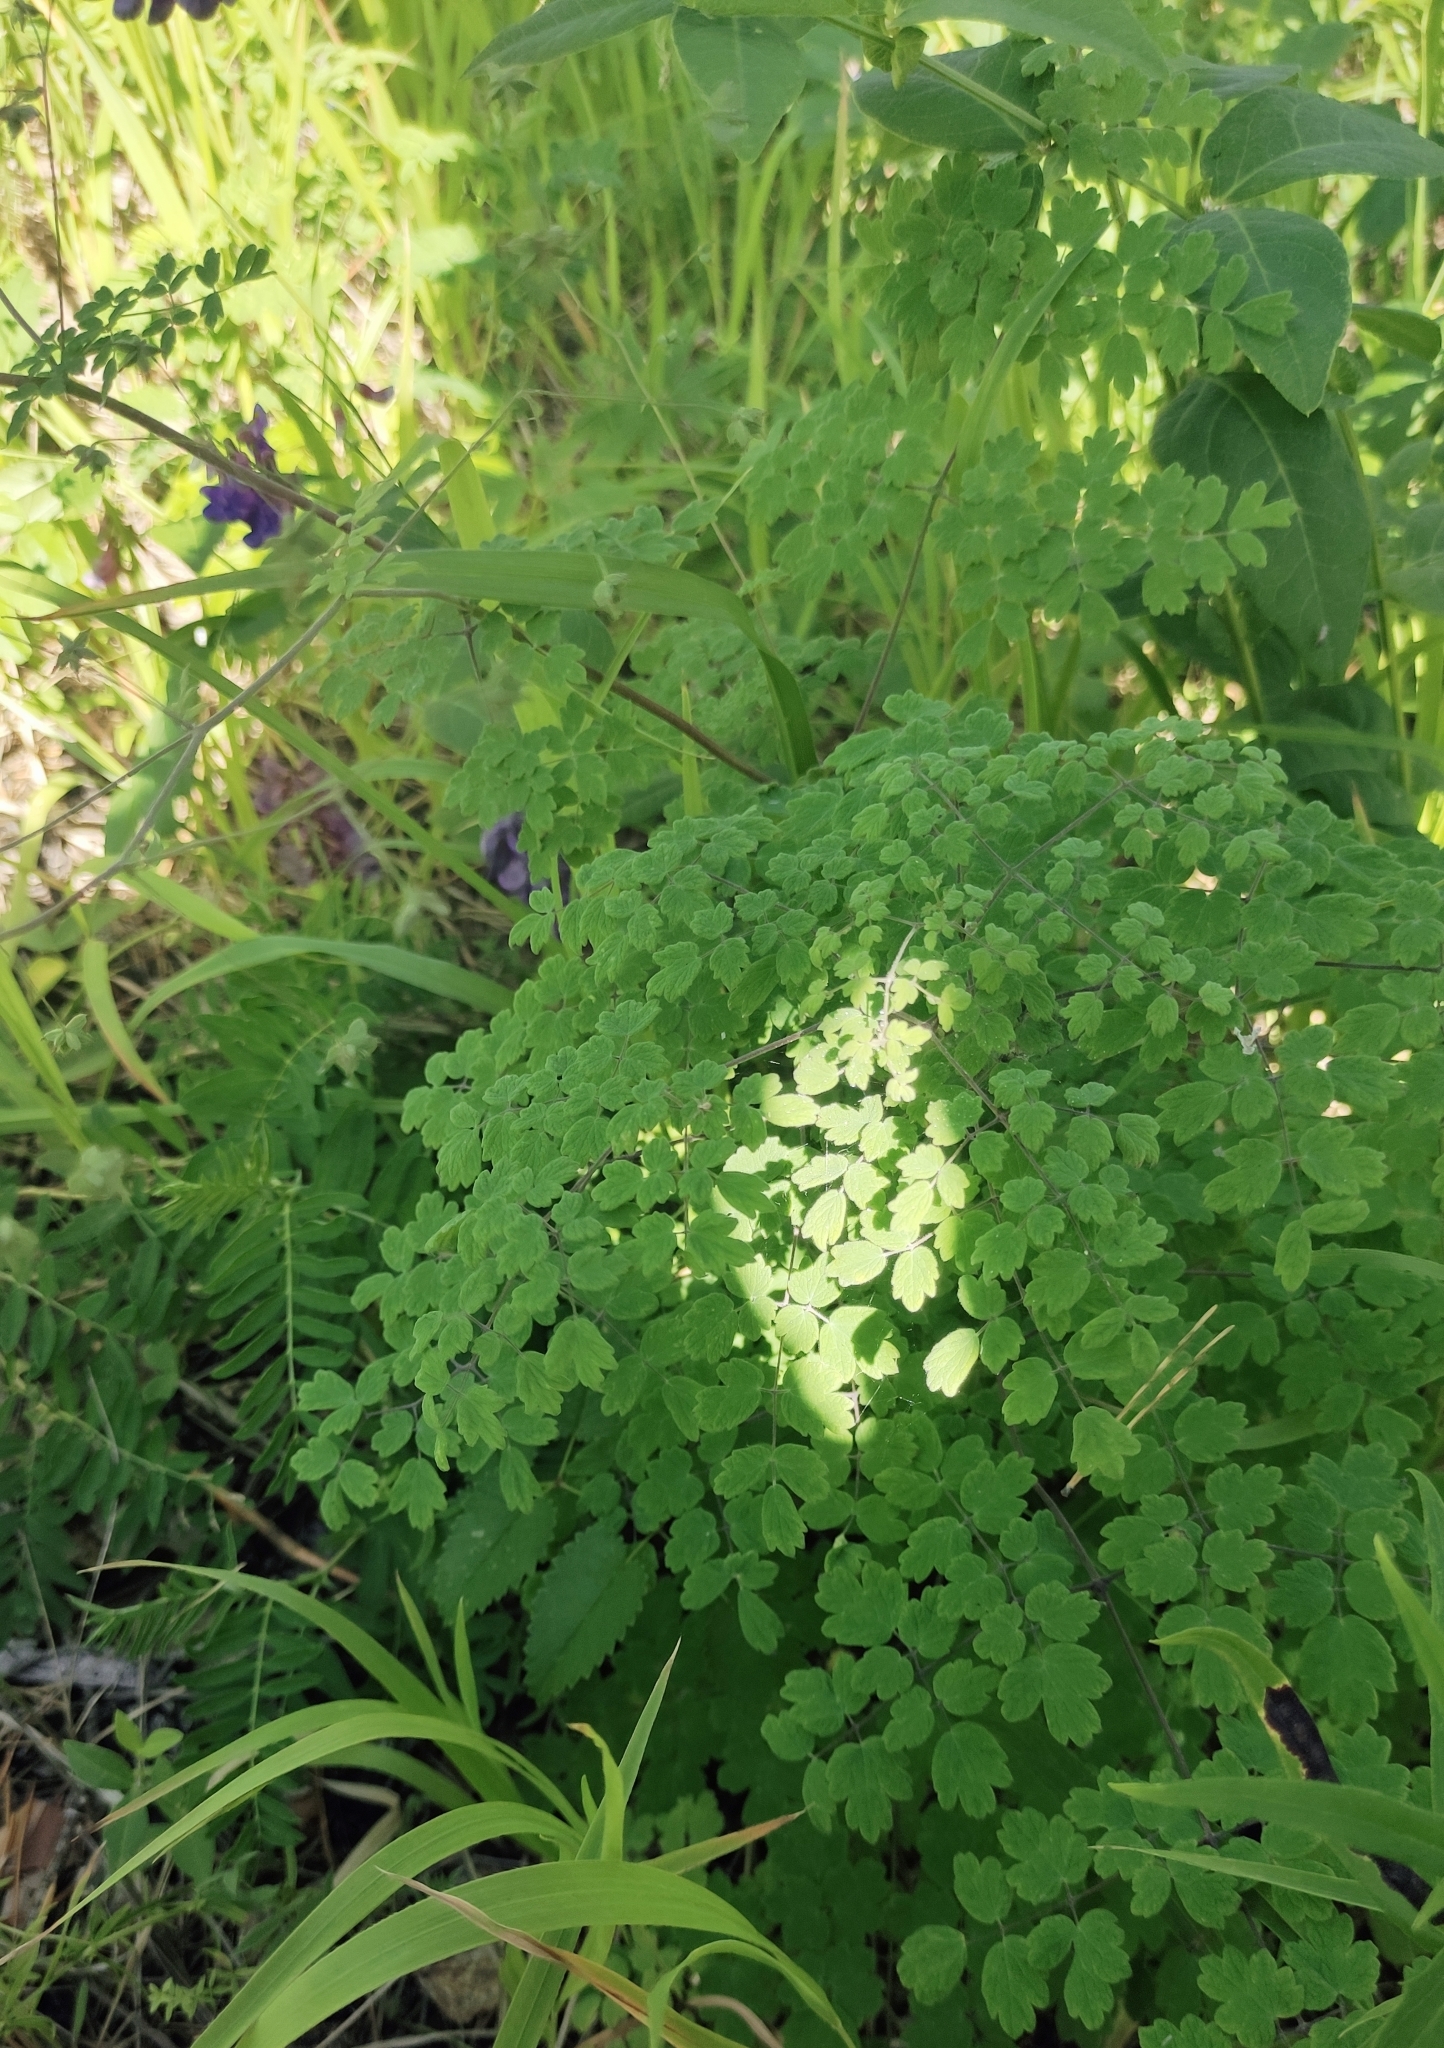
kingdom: Plantae
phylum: Tracheophyta
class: Magnoliopsida
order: Ranunculales
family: Ranunculaceae
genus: Thalictrum
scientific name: Thalictrum foetidum
